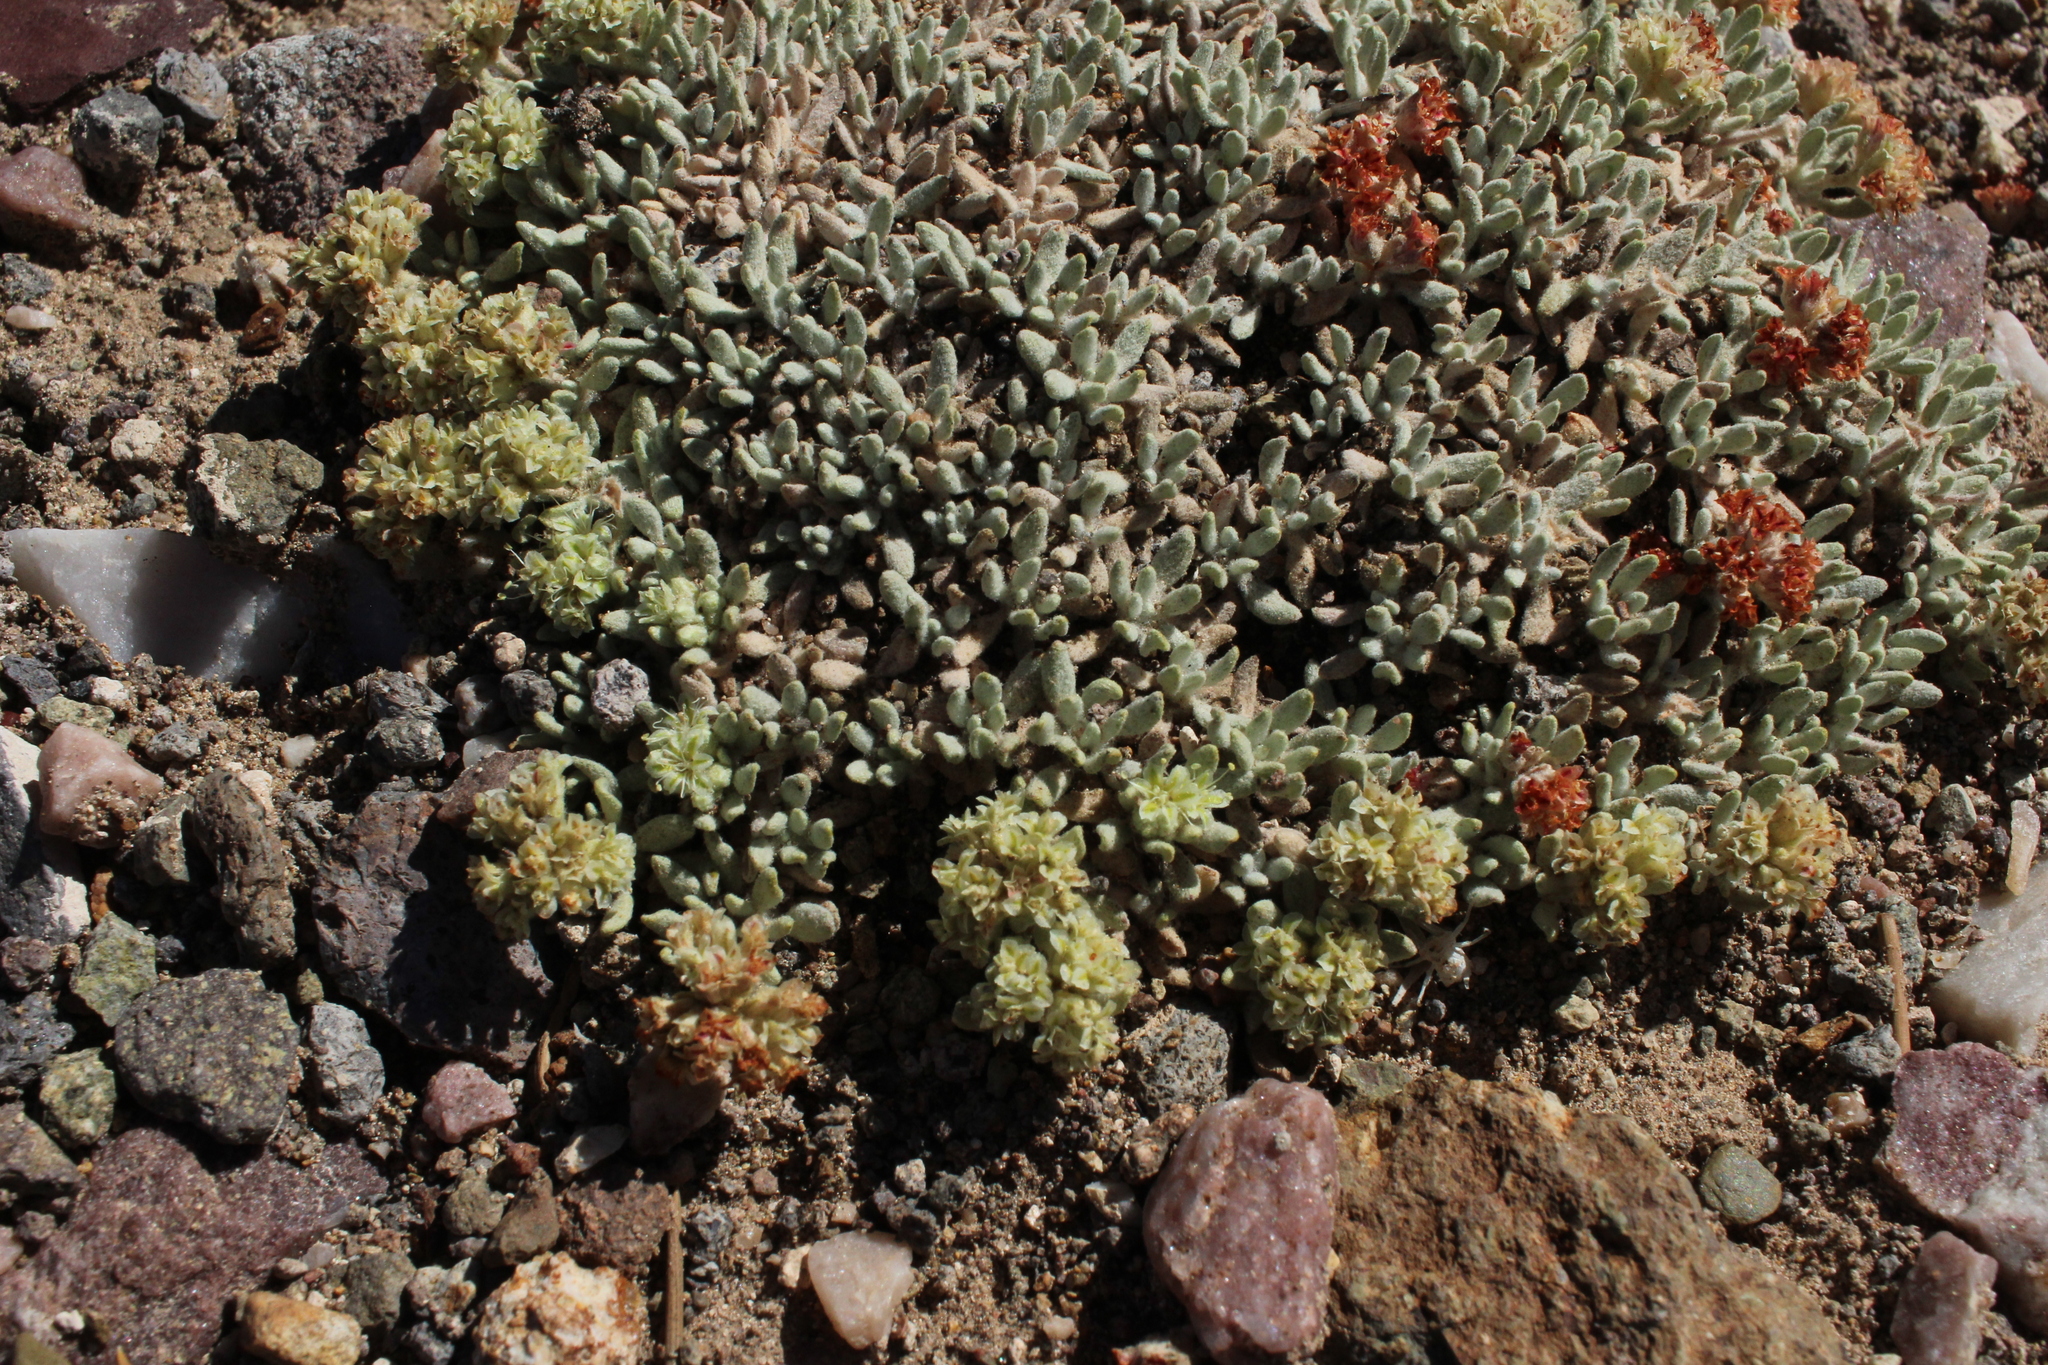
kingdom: Plantae
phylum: Tracheophyta
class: Magnoliopsida
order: Caryophyllales
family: Polygonaceae
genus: Eriogonum
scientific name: Eriogonum shockleyi
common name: Shockley's wild buckwheat
